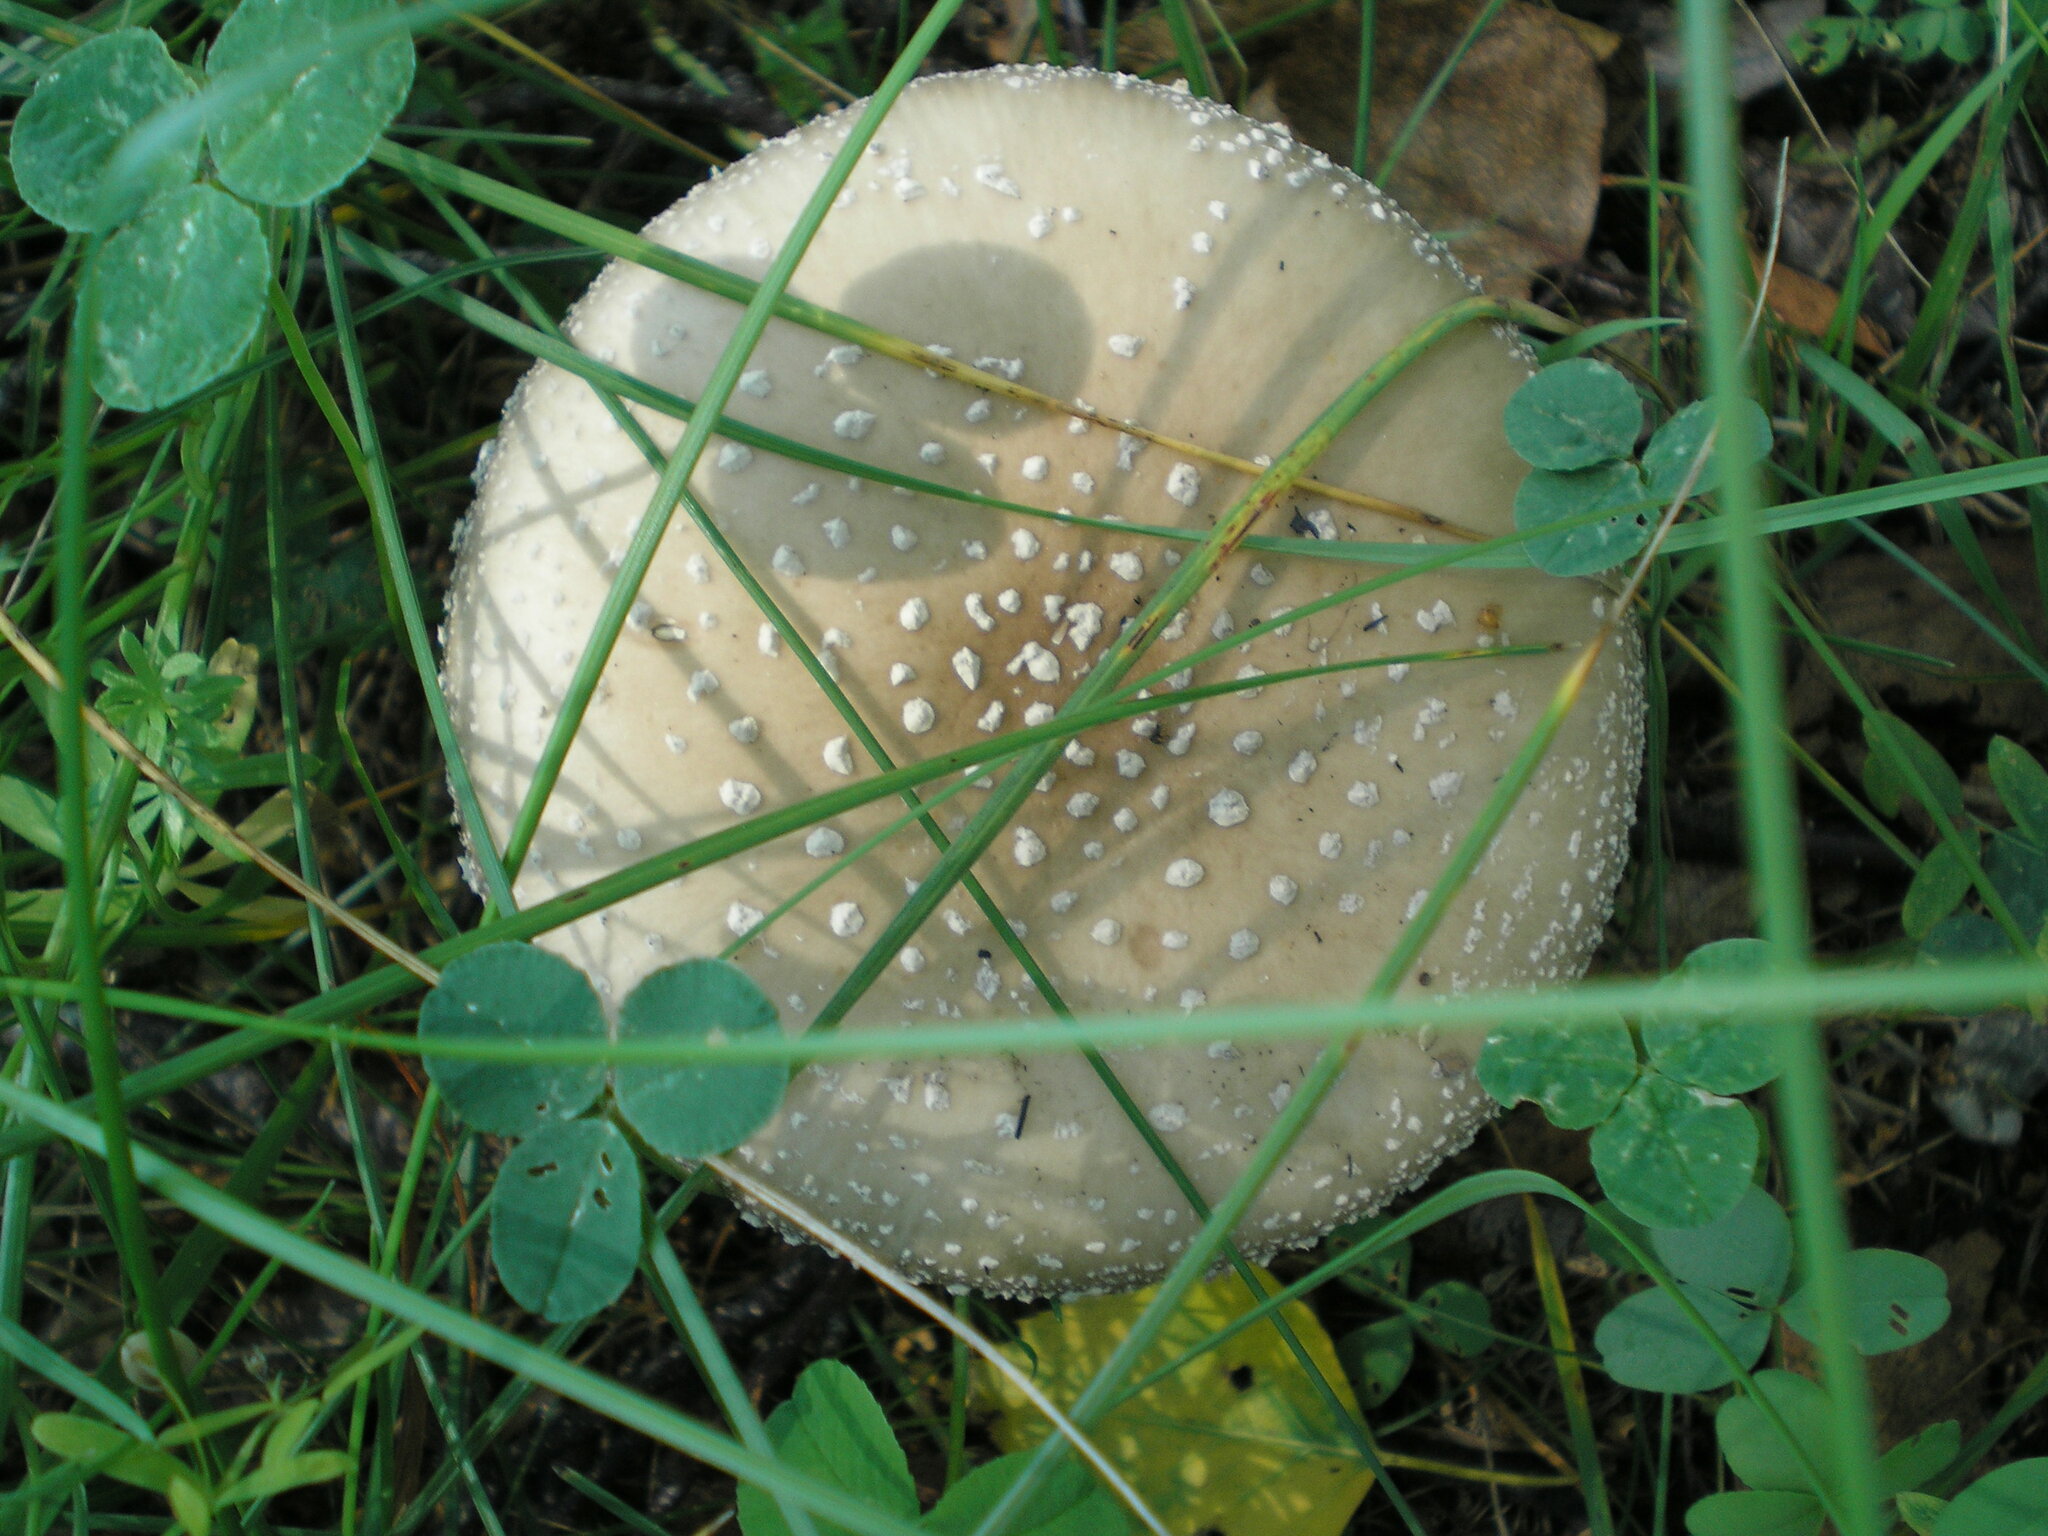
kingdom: Fungi
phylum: Basidiomycota
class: Agaricomycetes
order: Agaricales
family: Amanitaceae
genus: Amanita
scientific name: Amanita pantherina
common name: Panthercap
